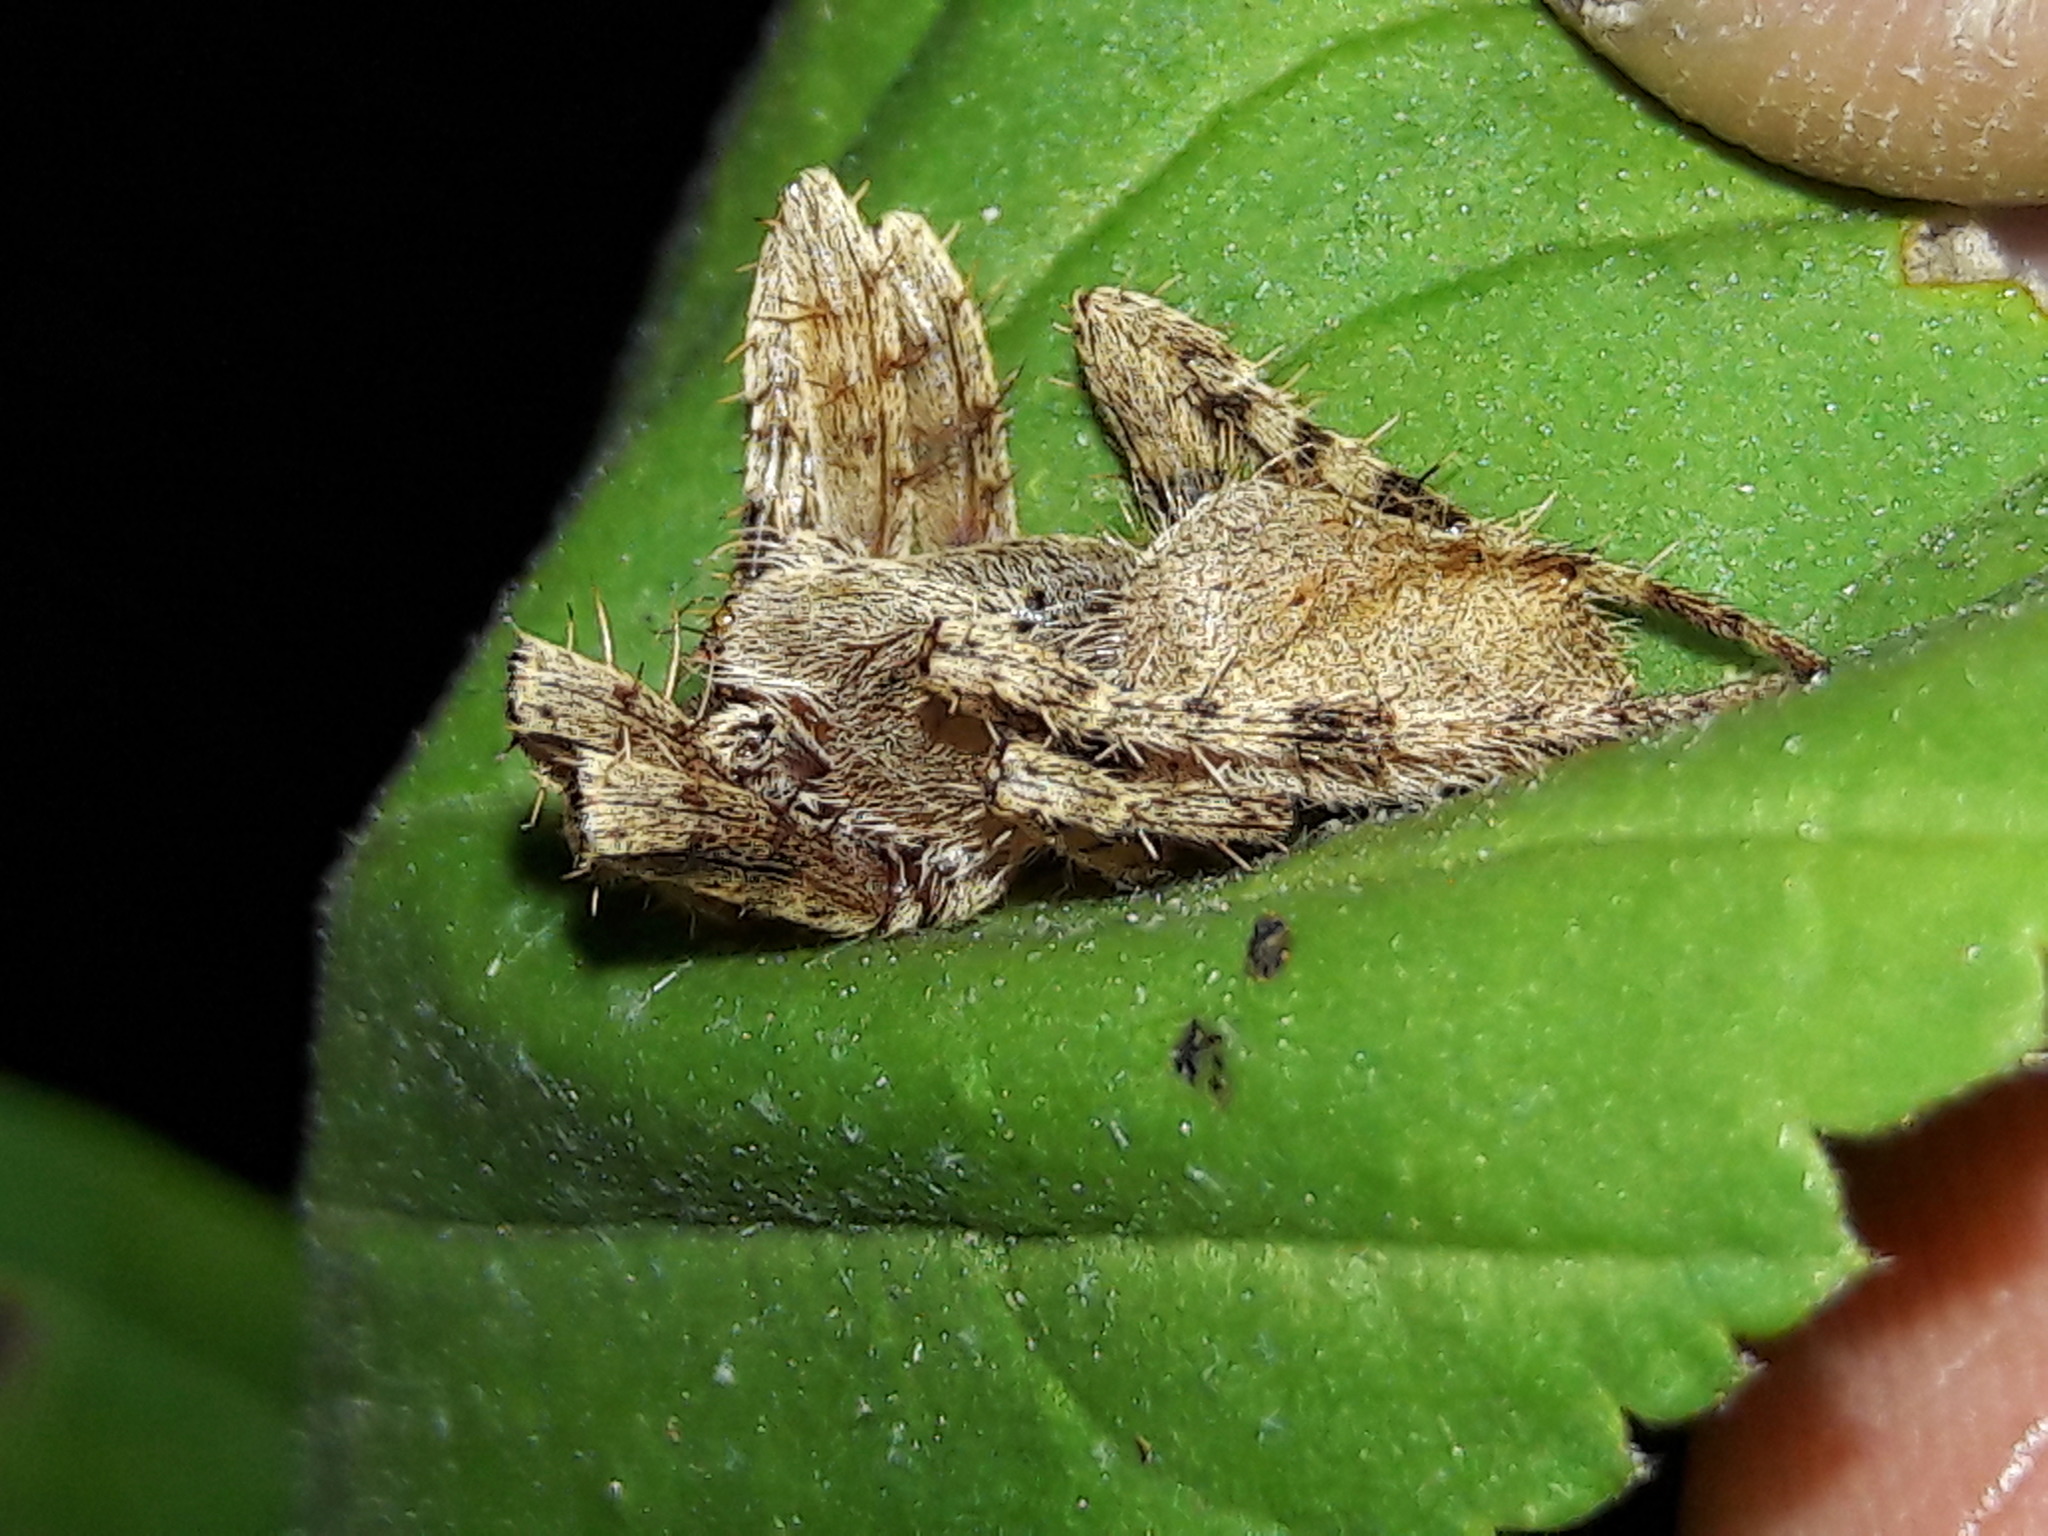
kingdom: Animalia
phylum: Arthropoda
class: Arachnida
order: Araneae
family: Araneidae
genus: Eriophora
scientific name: Eriophora edax
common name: Orb weavers
